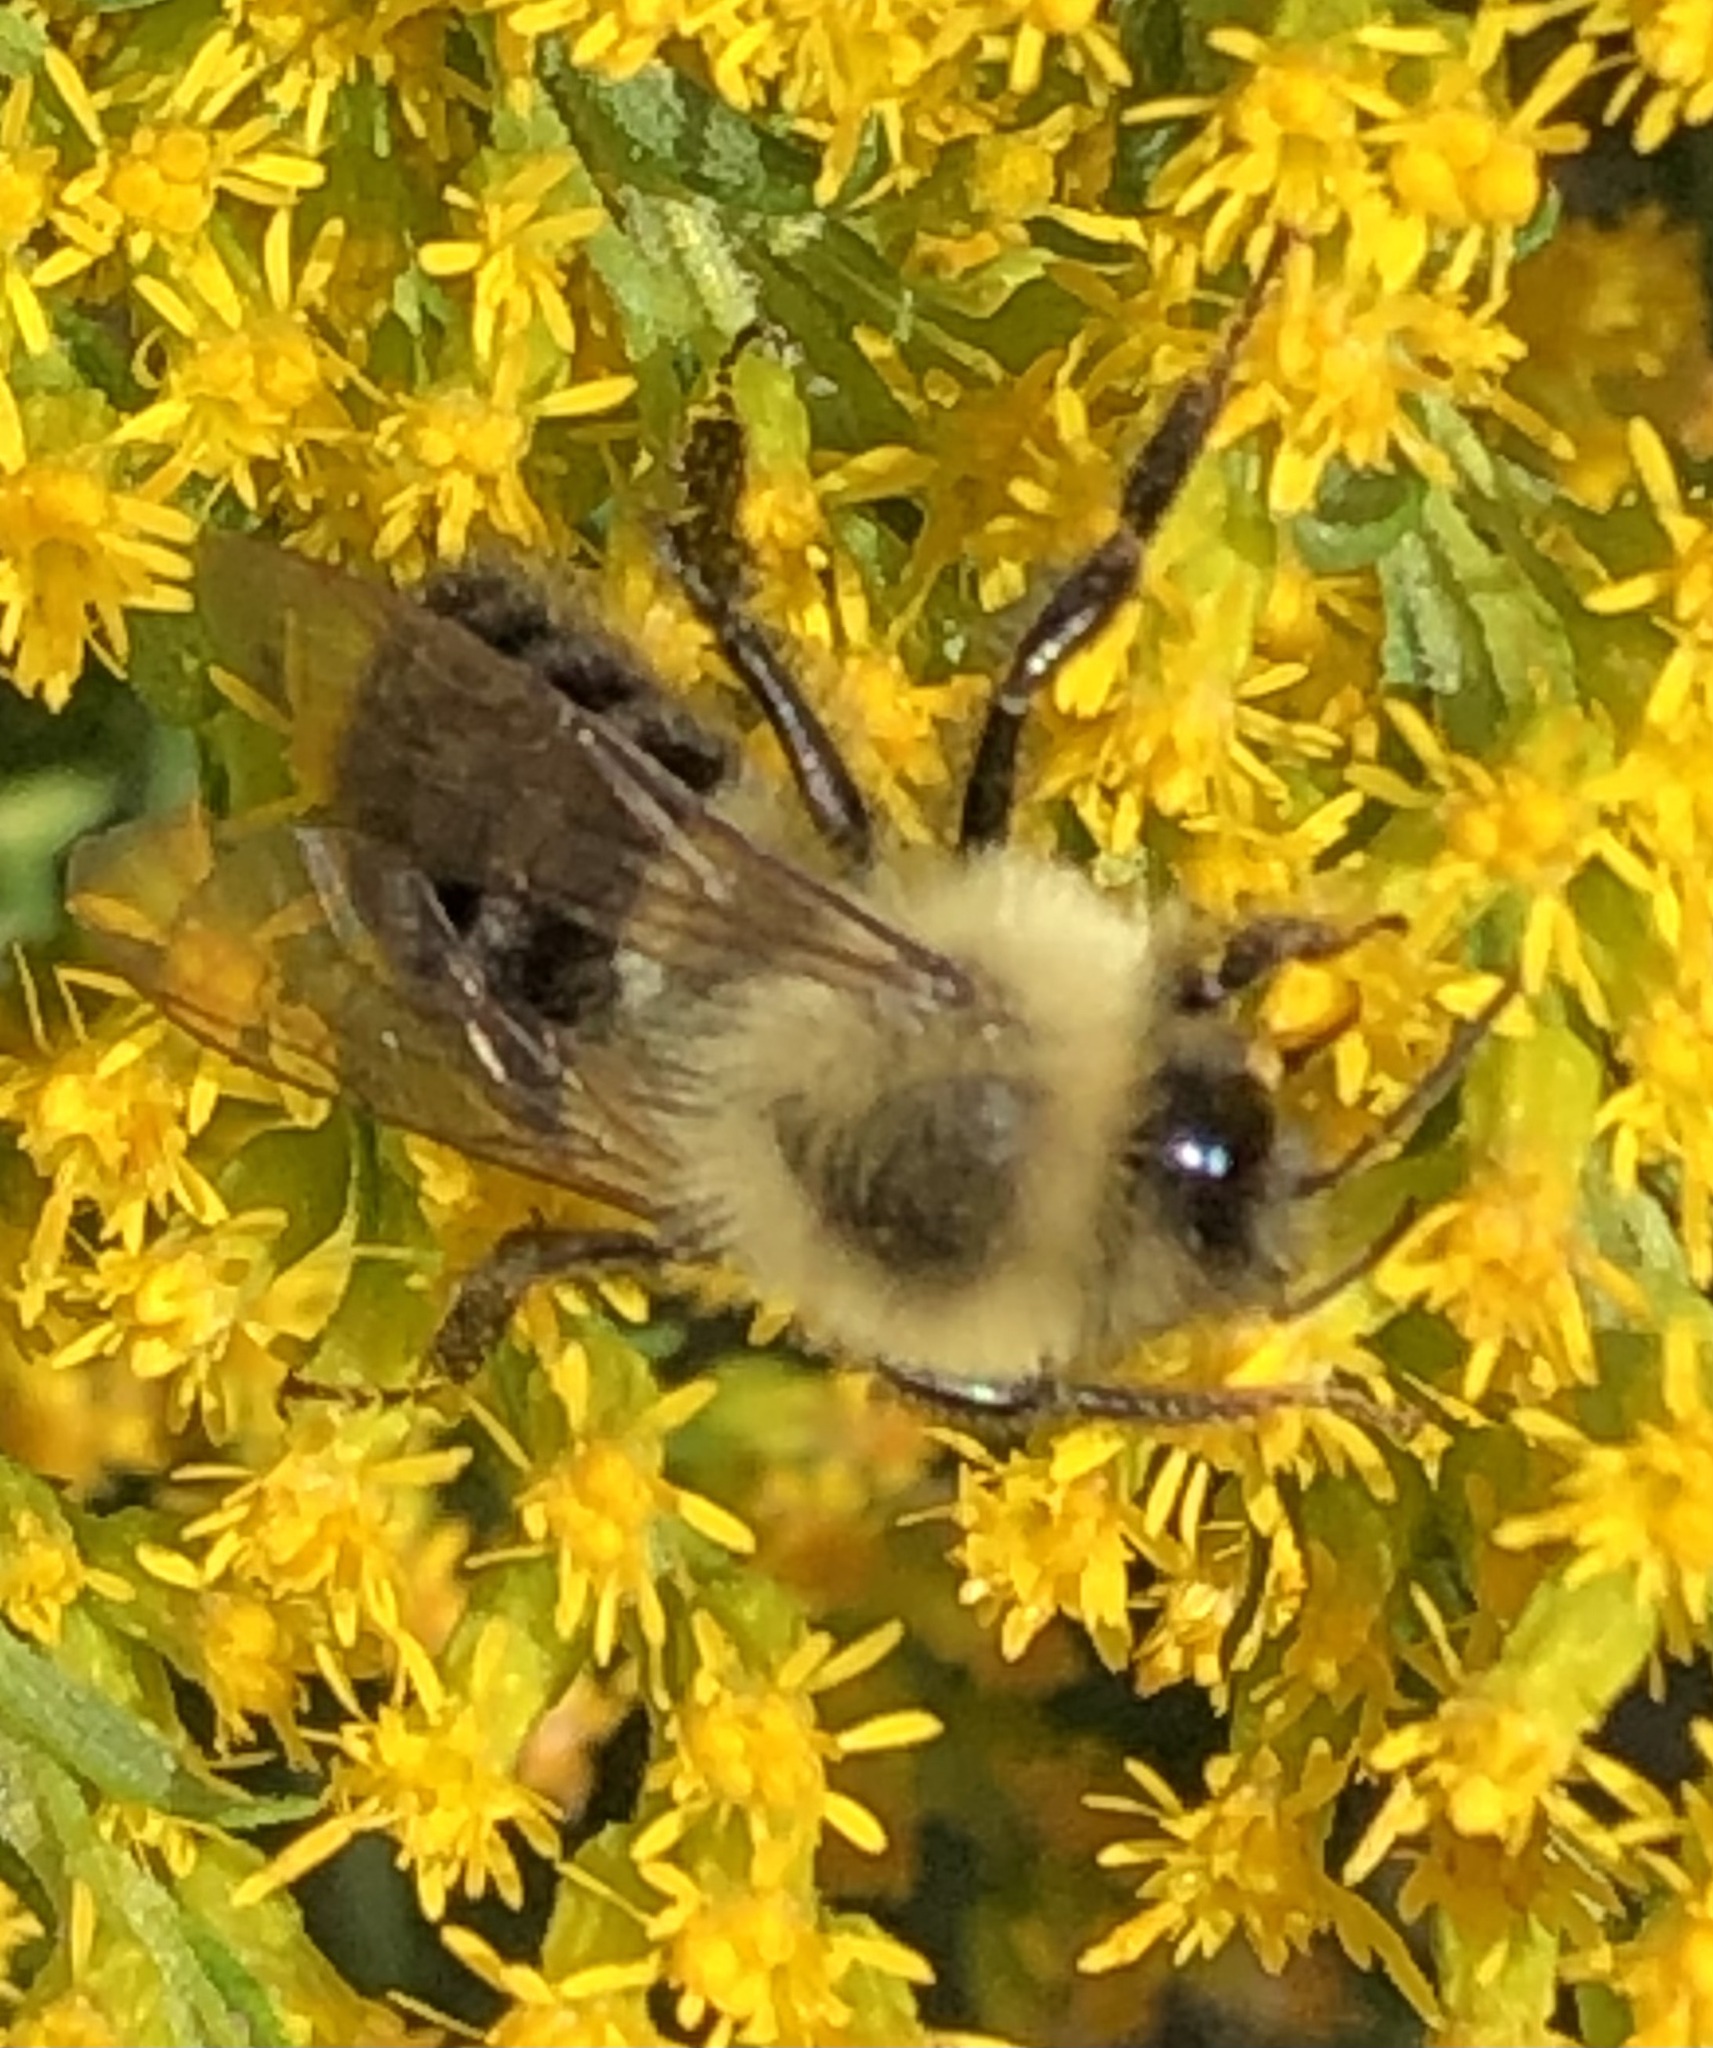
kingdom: Animalia
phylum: Arthropoda
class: Insecta
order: Hymenoptera
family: Apidae
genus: Bombus
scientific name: Bombus impatiens
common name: Common eastern bumble bee
